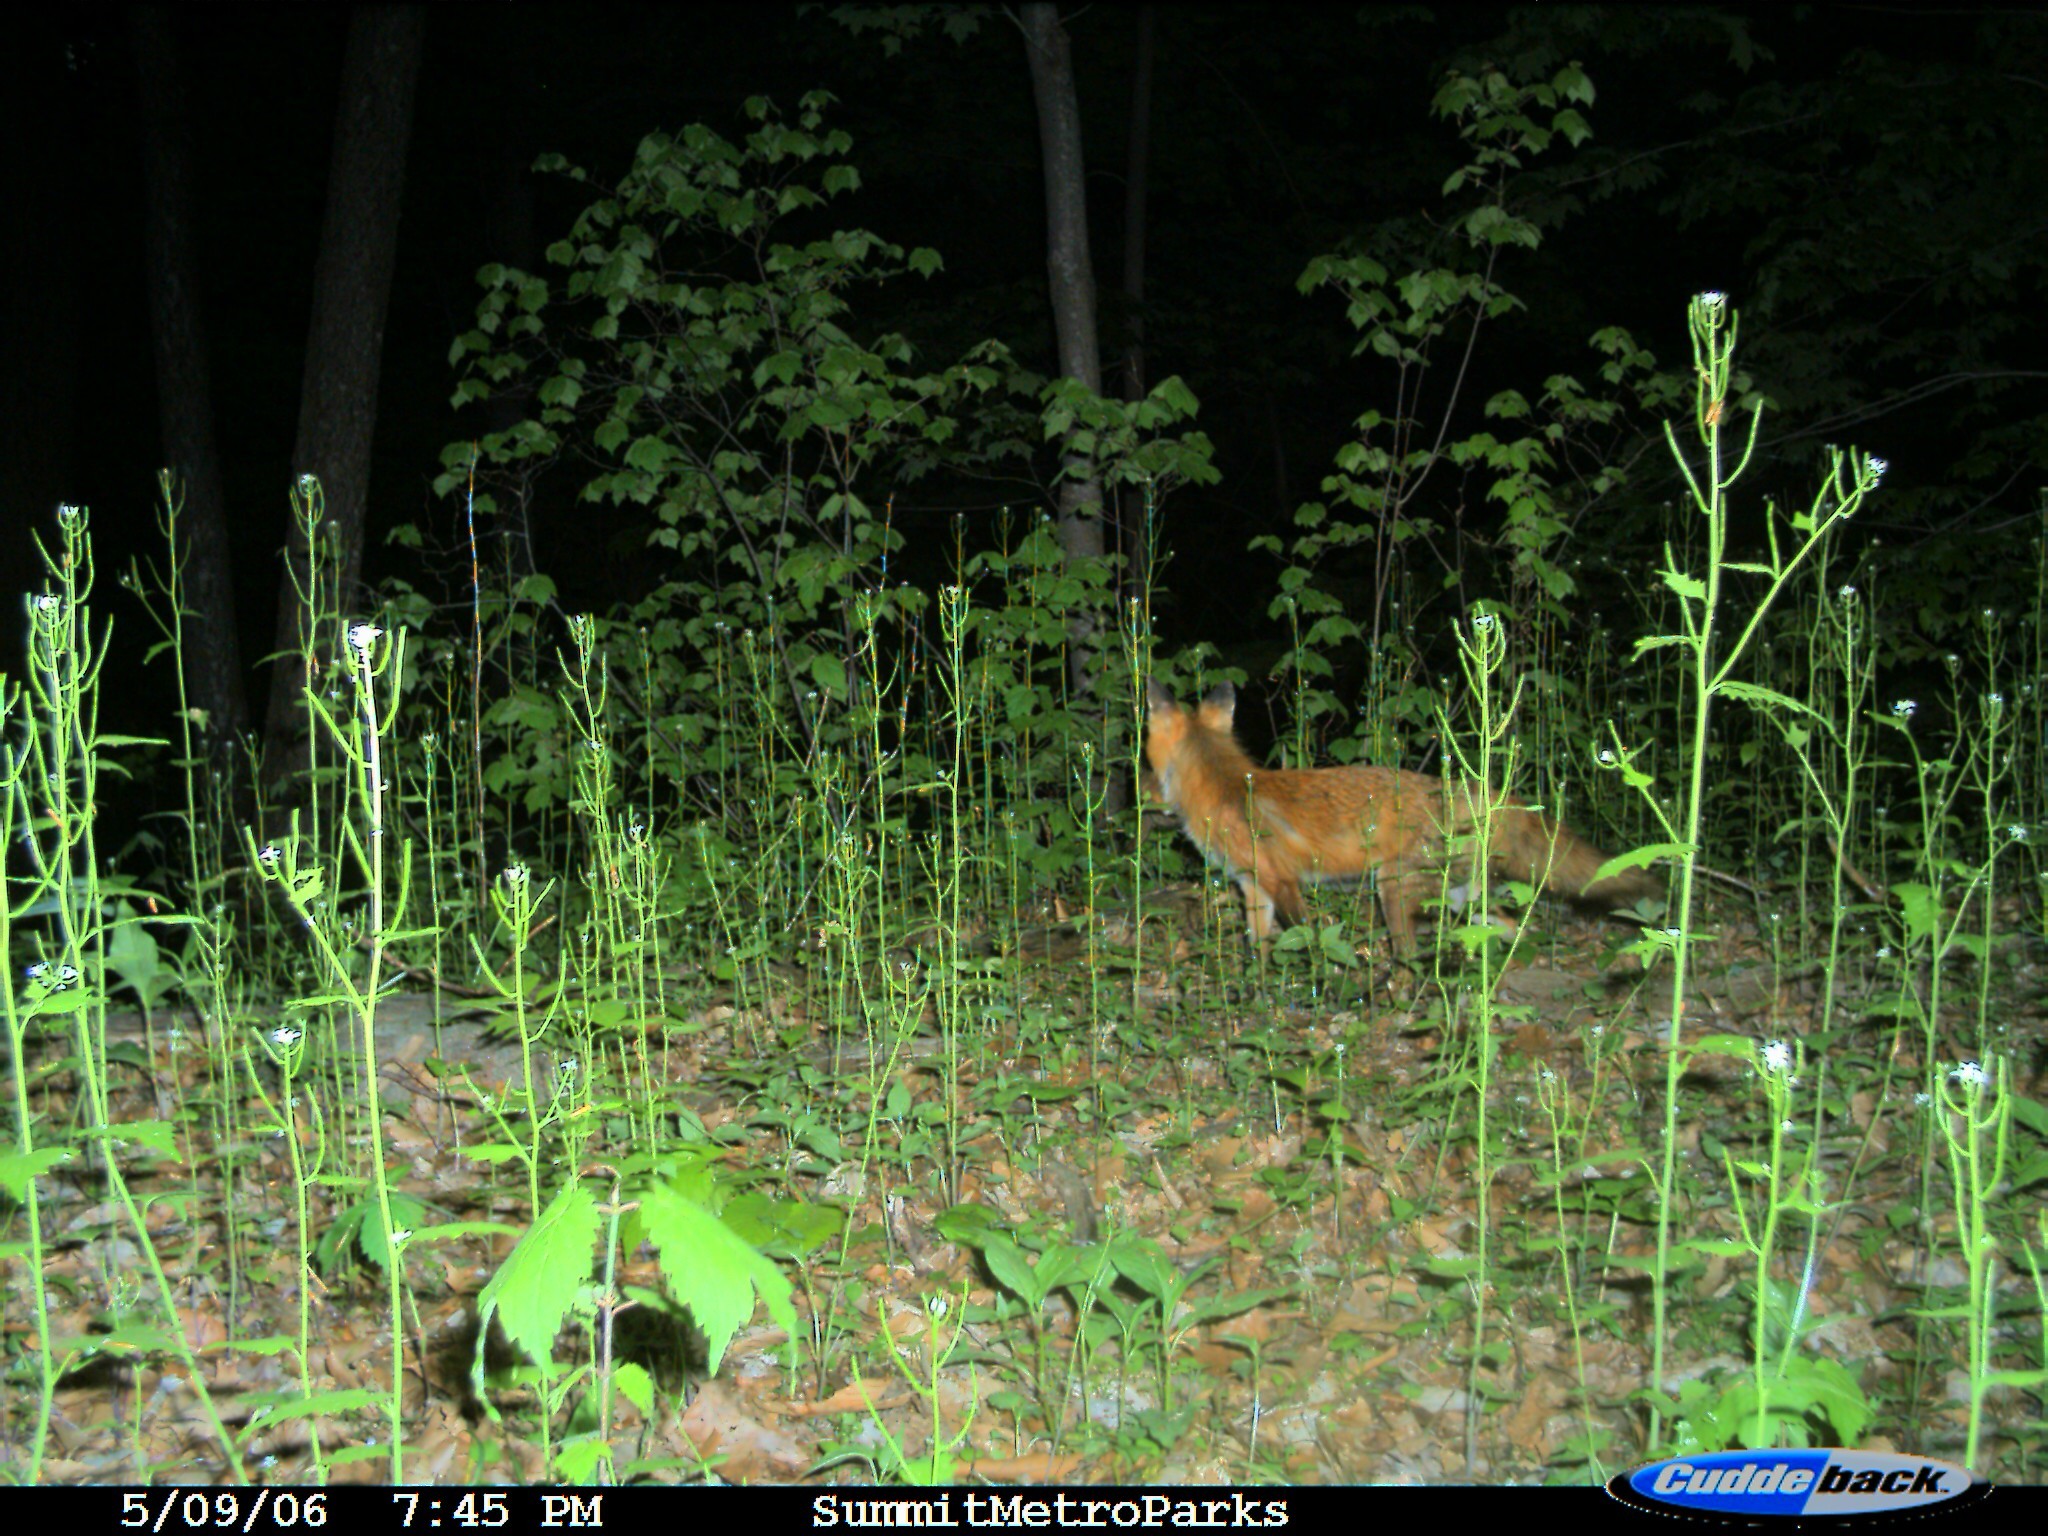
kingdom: Animalia
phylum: Chordata
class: Mammalia
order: Carnivora
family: Canidae
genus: Vulpes
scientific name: Vulpes vulpes
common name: Red fox
